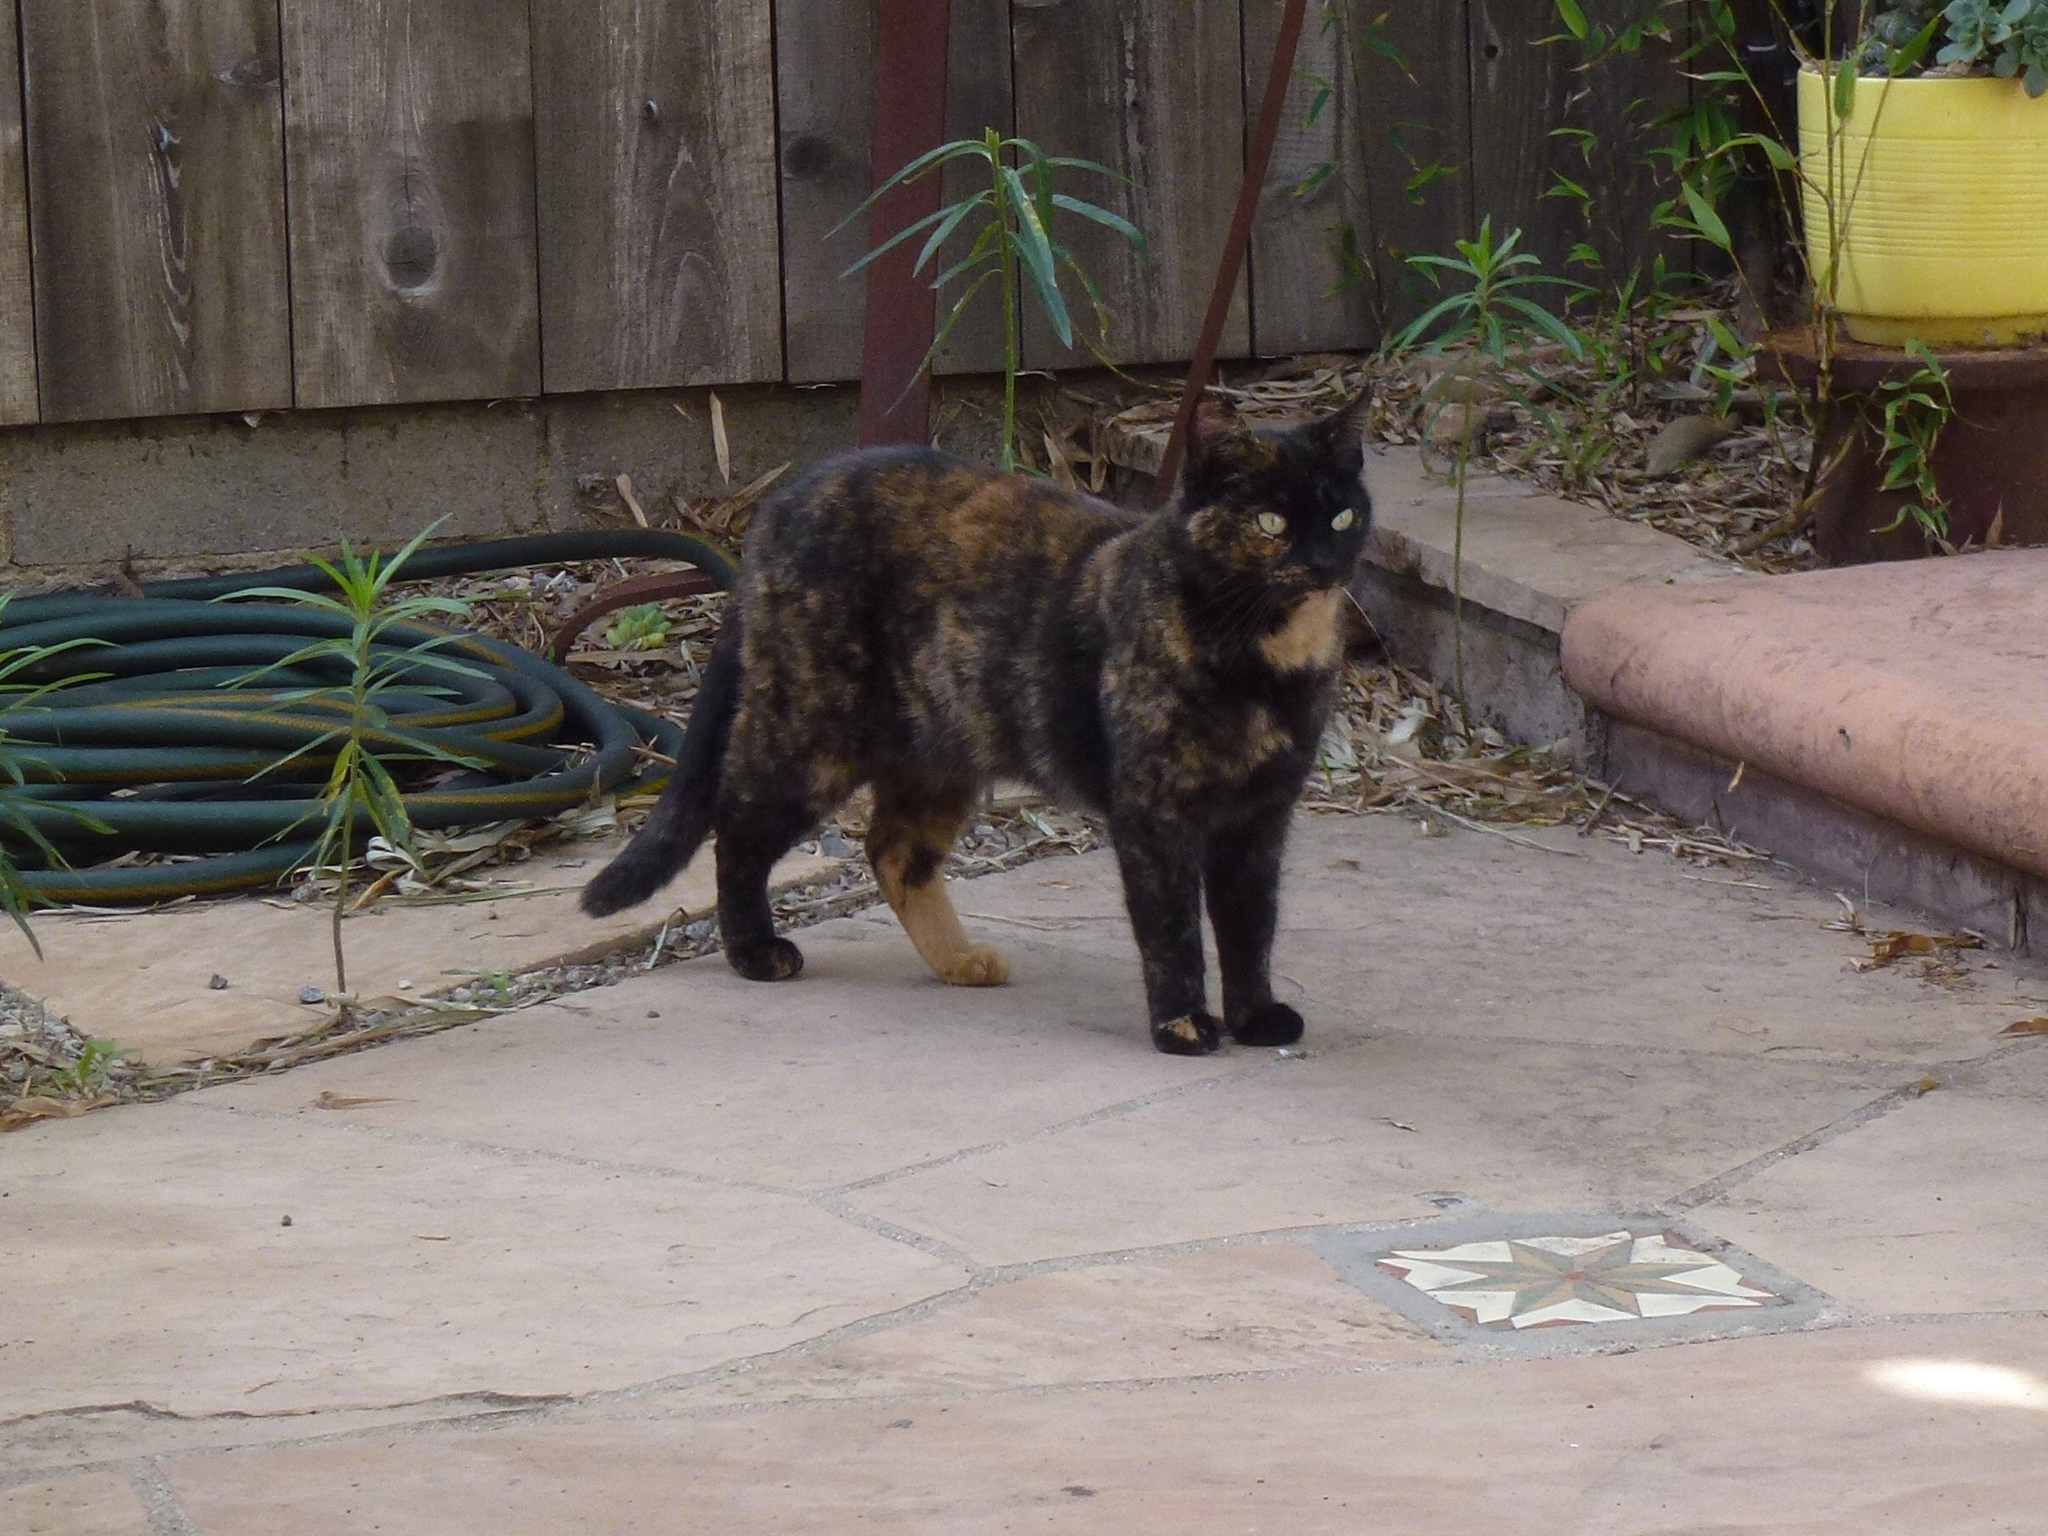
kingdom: Animalia
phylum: Chordata
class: Mammalia
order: Carnivora
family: Felidae
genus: Felis
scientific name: Felis catus
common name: Domestic cat
